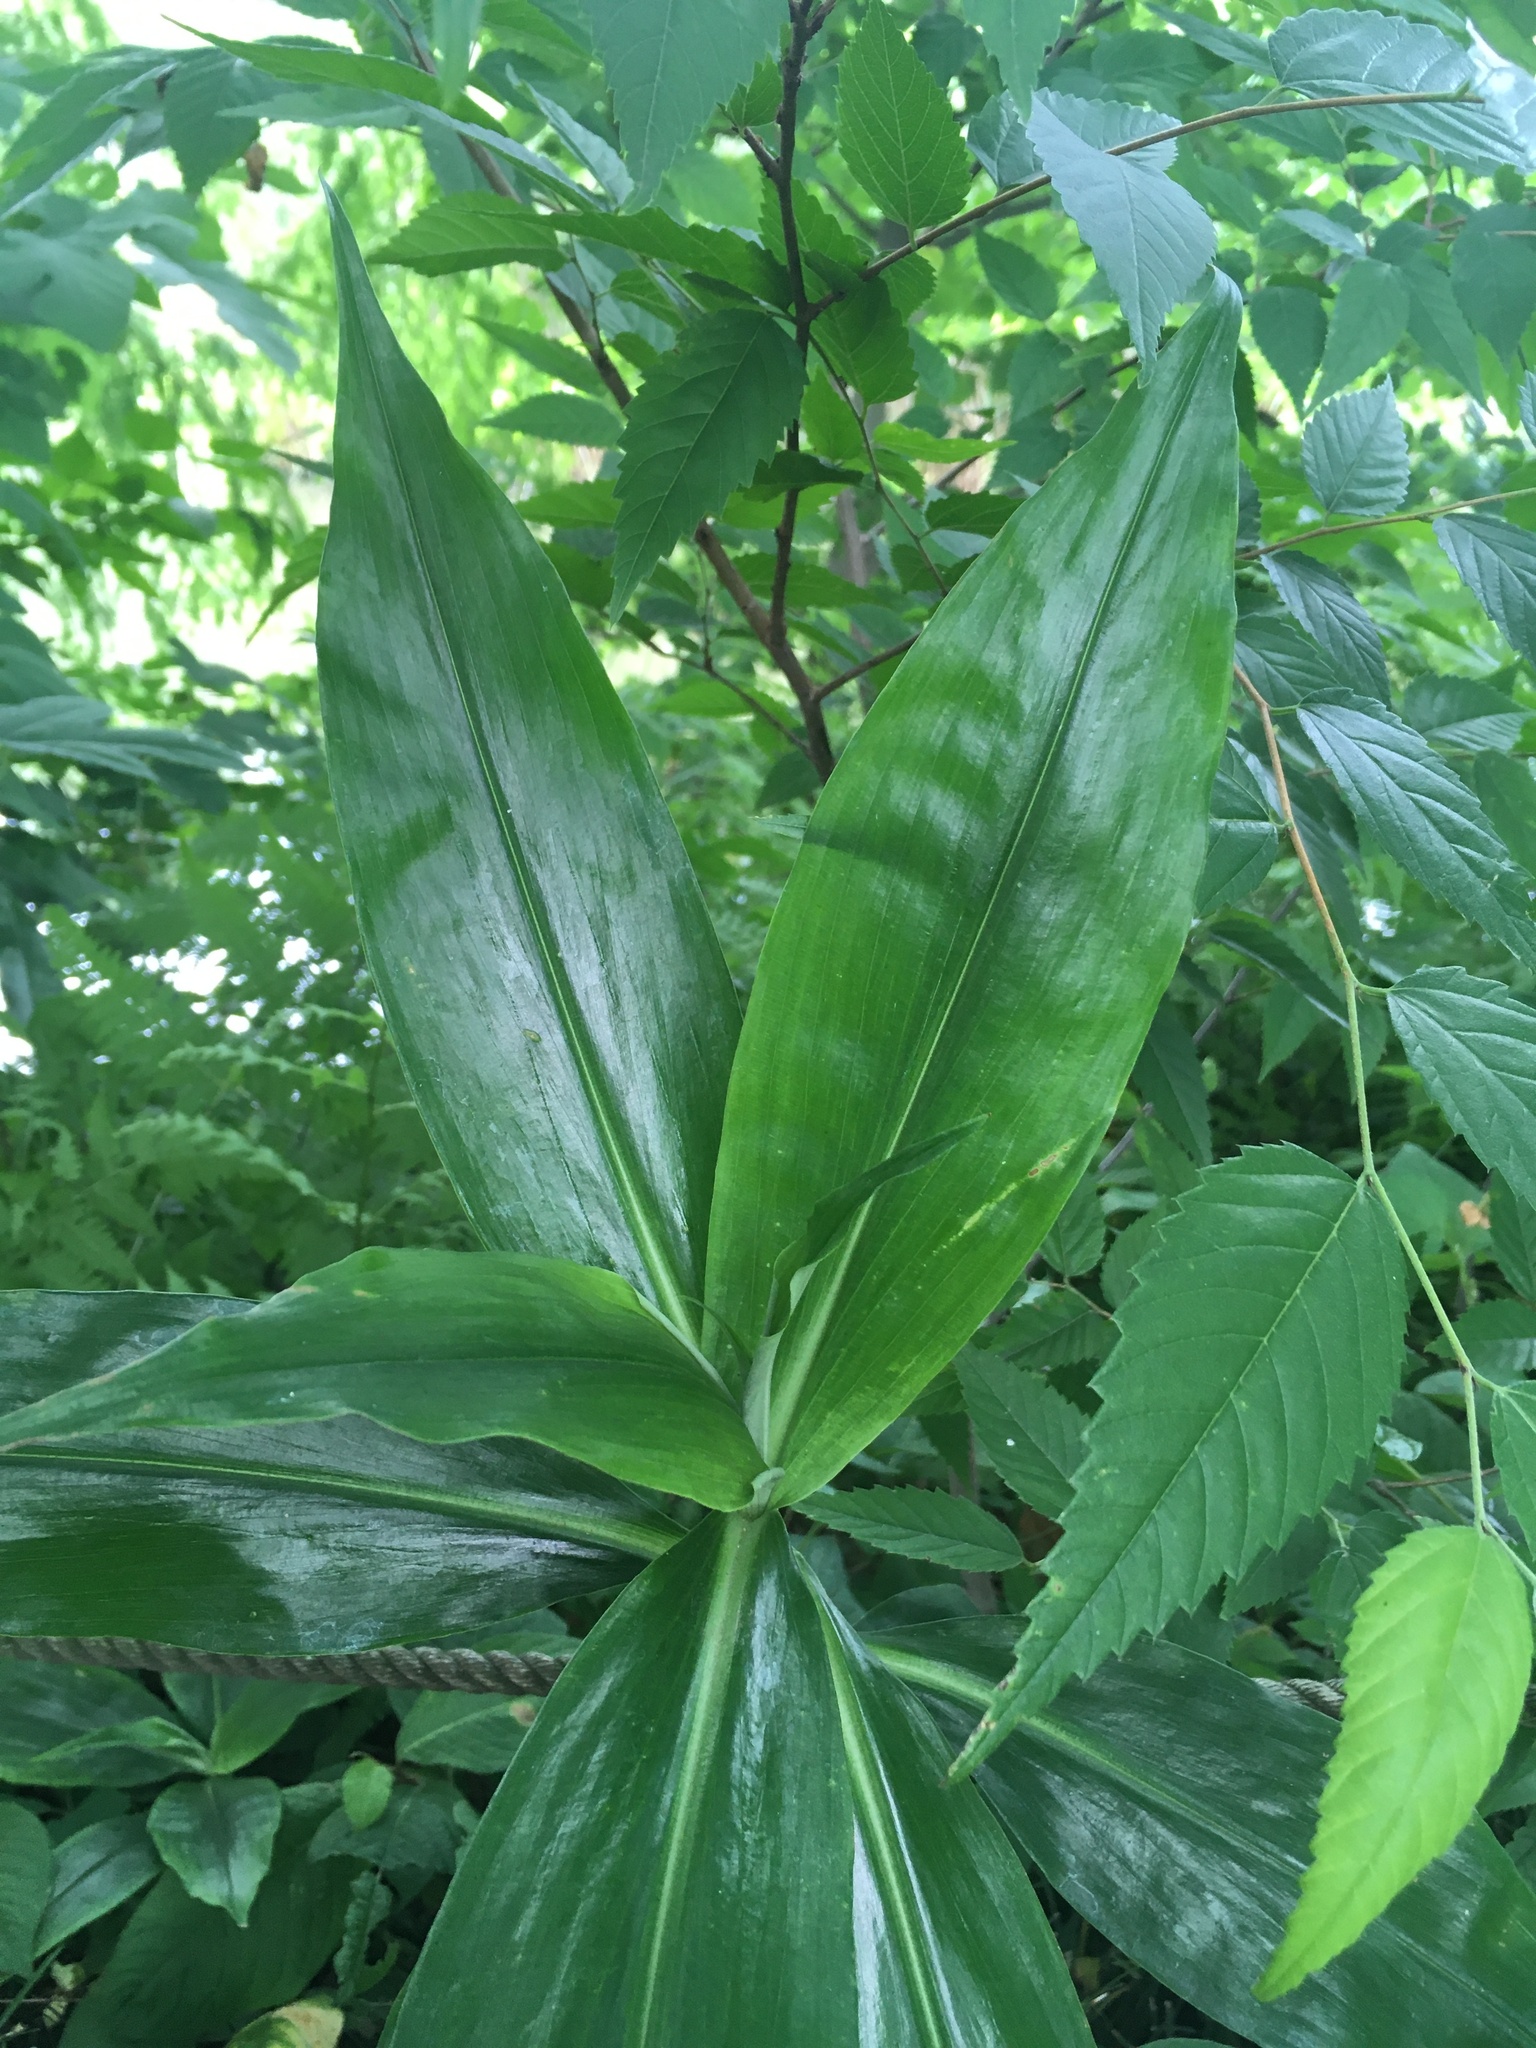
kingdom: Plantae
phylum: Tracheophyta
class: Liliopsida
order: Commelinales
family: Commelinaceae
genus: Pollia
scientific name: Pollia japonica
